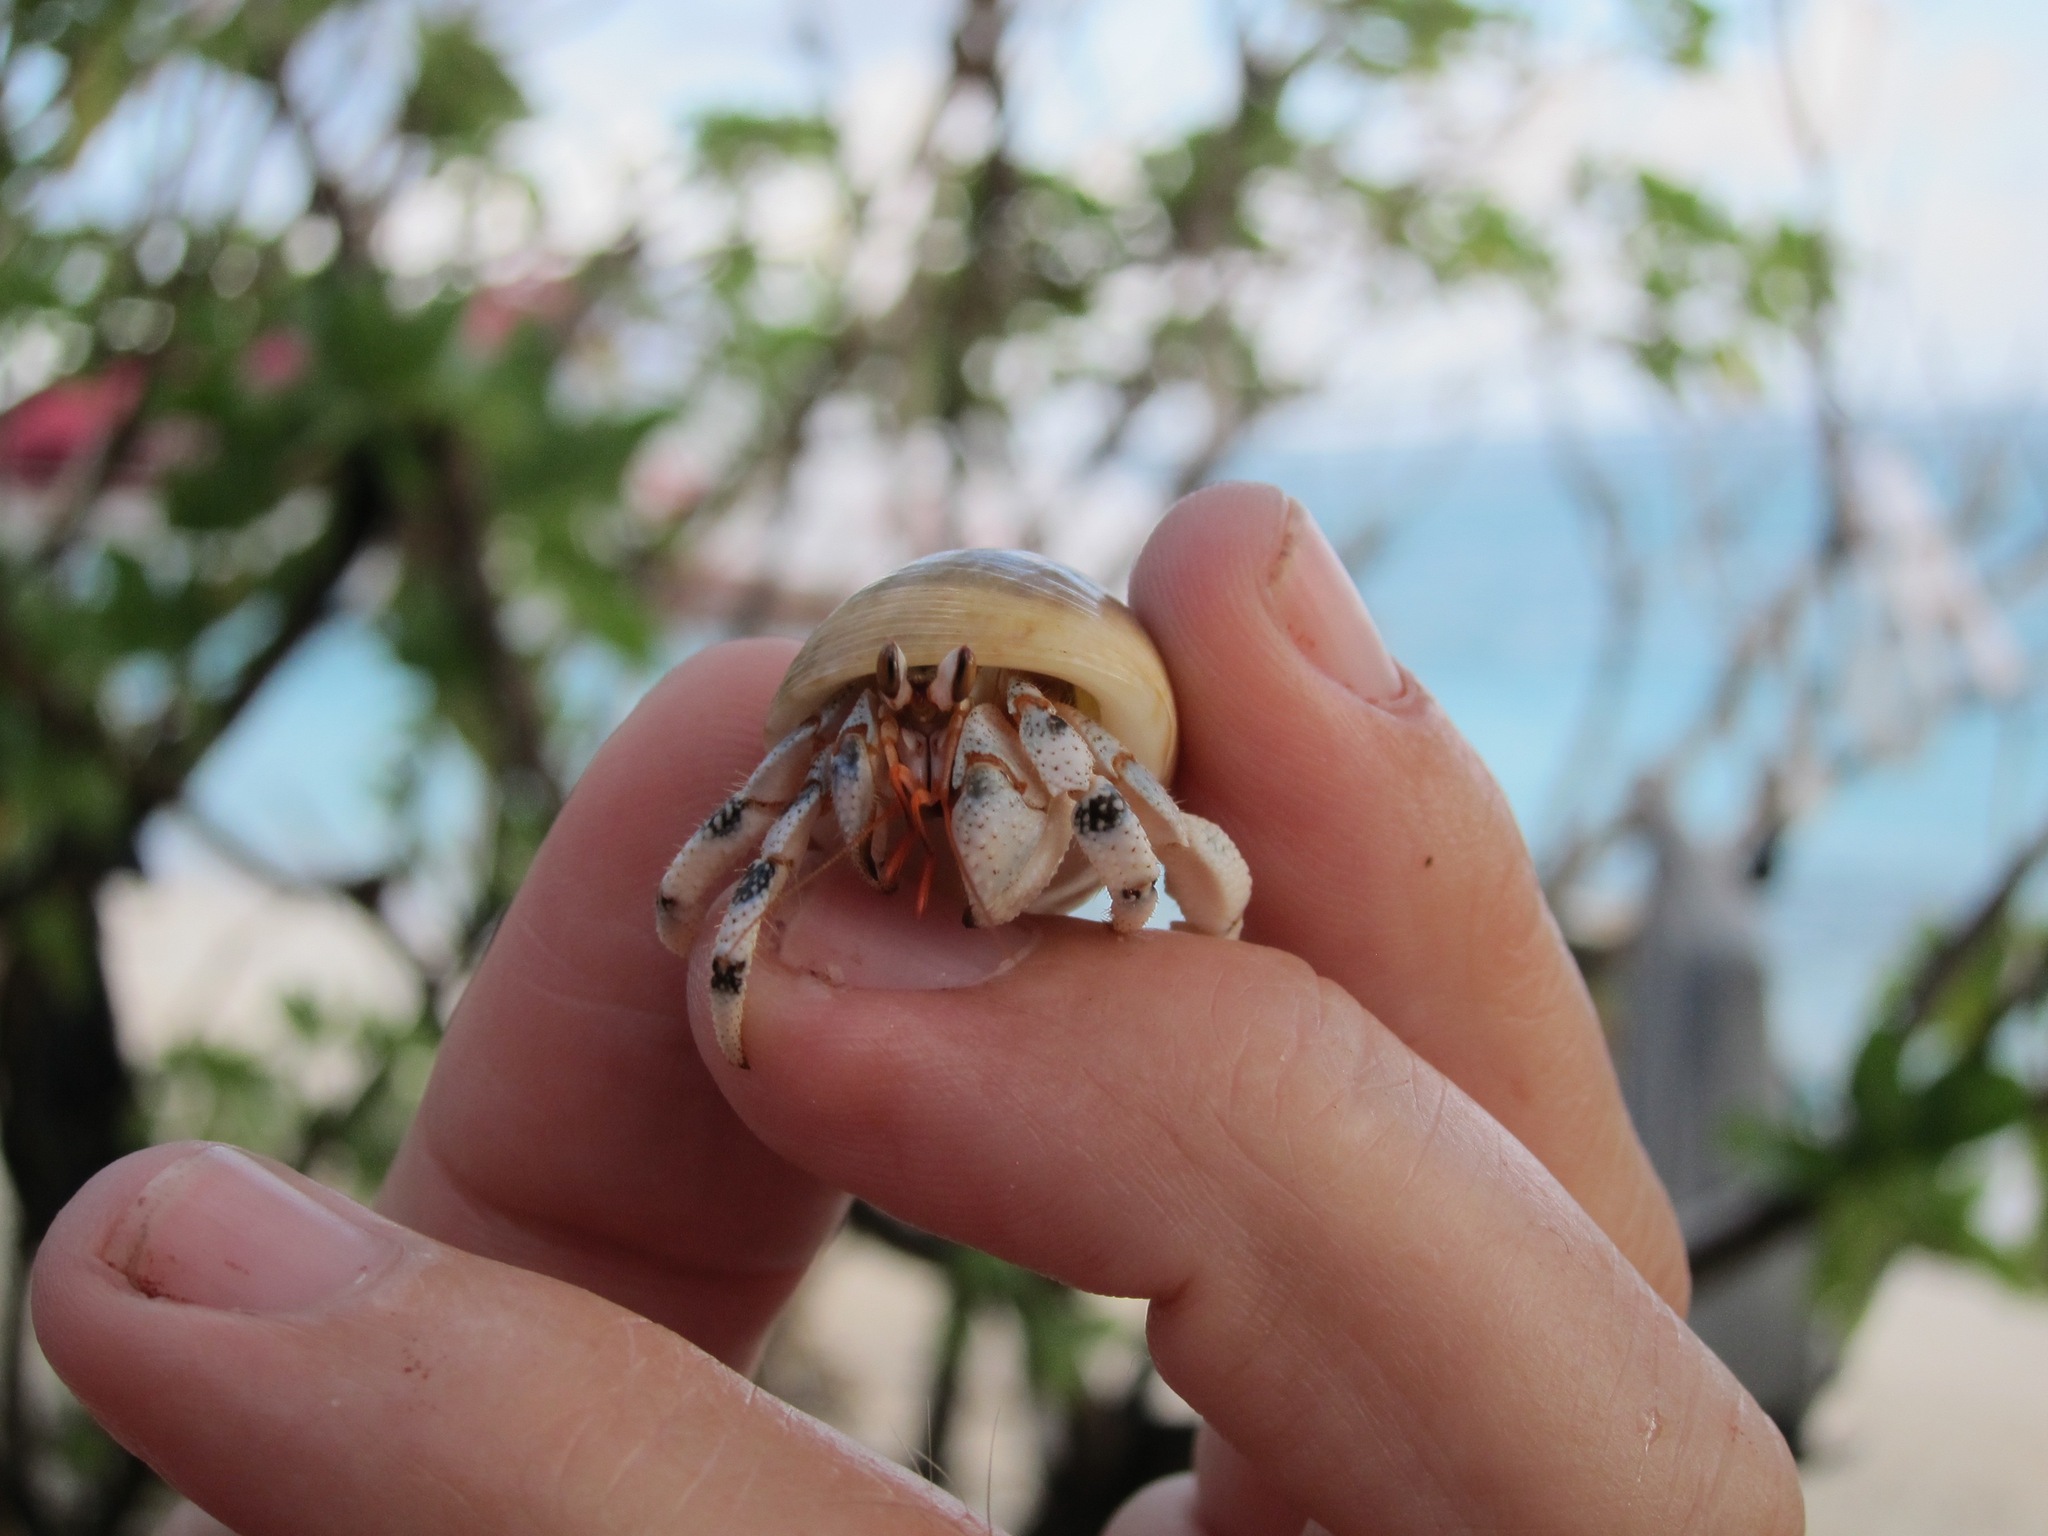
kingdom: Animalia
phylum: Arthropoda
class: Malacostraca
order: Decapoda
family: Coenobitidae
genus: Coenobita
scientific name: Coenobita carnescens
